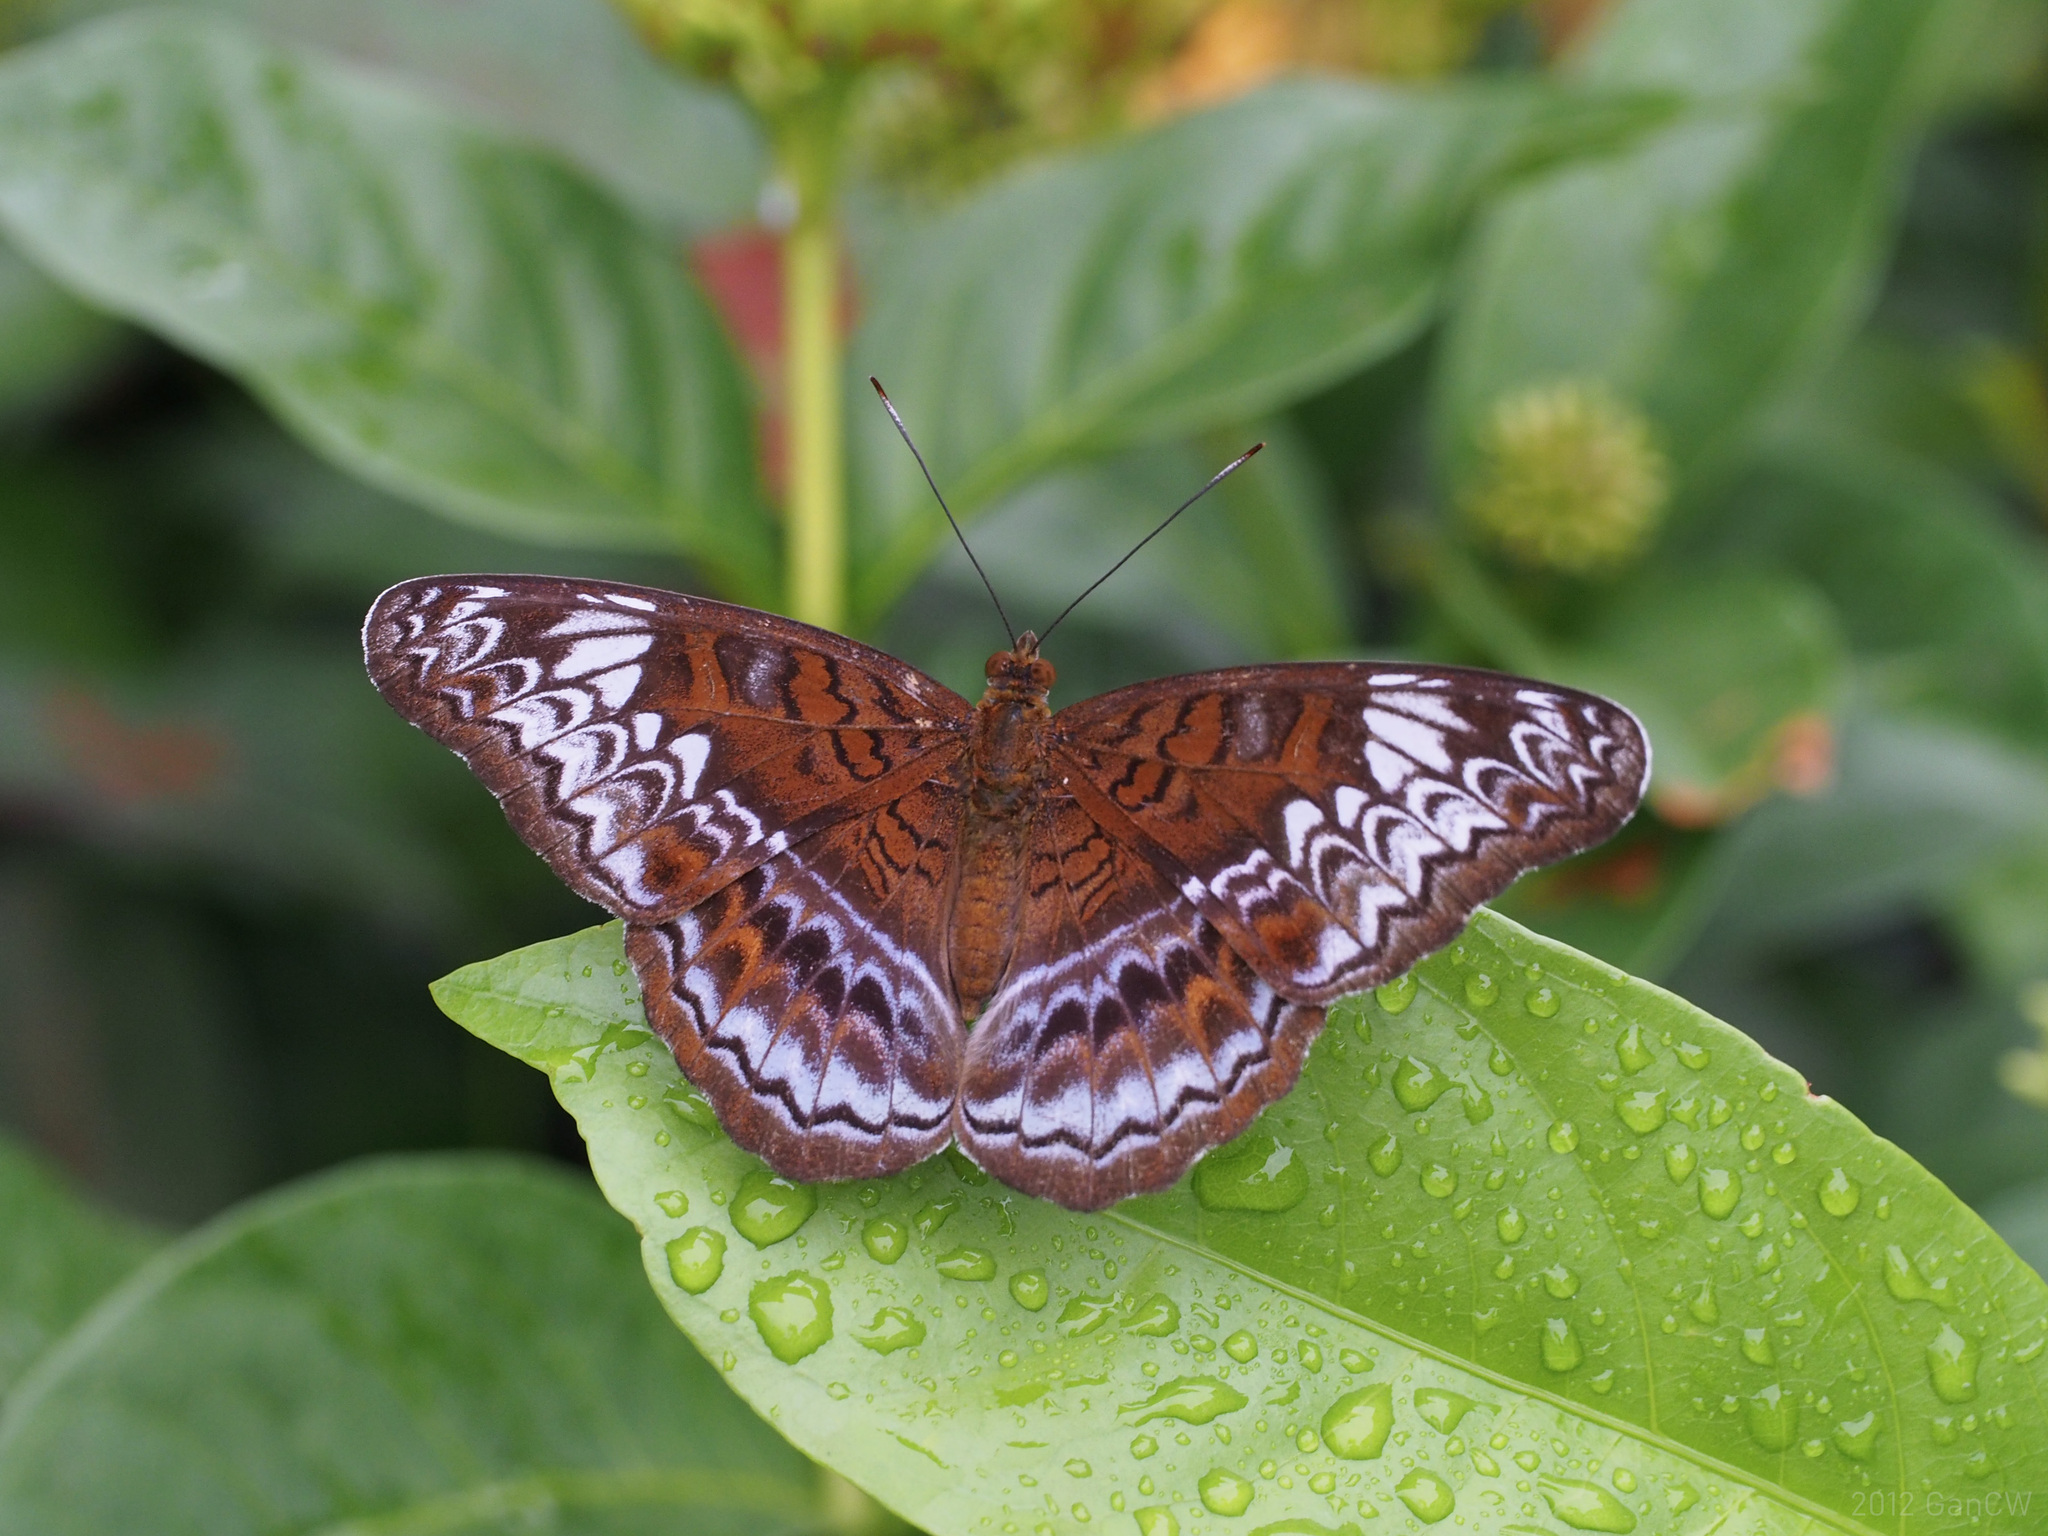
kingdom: Animalia
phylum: Arthropoda
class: Insecta
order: Lepidoptera
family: Nymphalidae
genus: Lebadea
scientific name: Lebadea martha
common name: Knight
